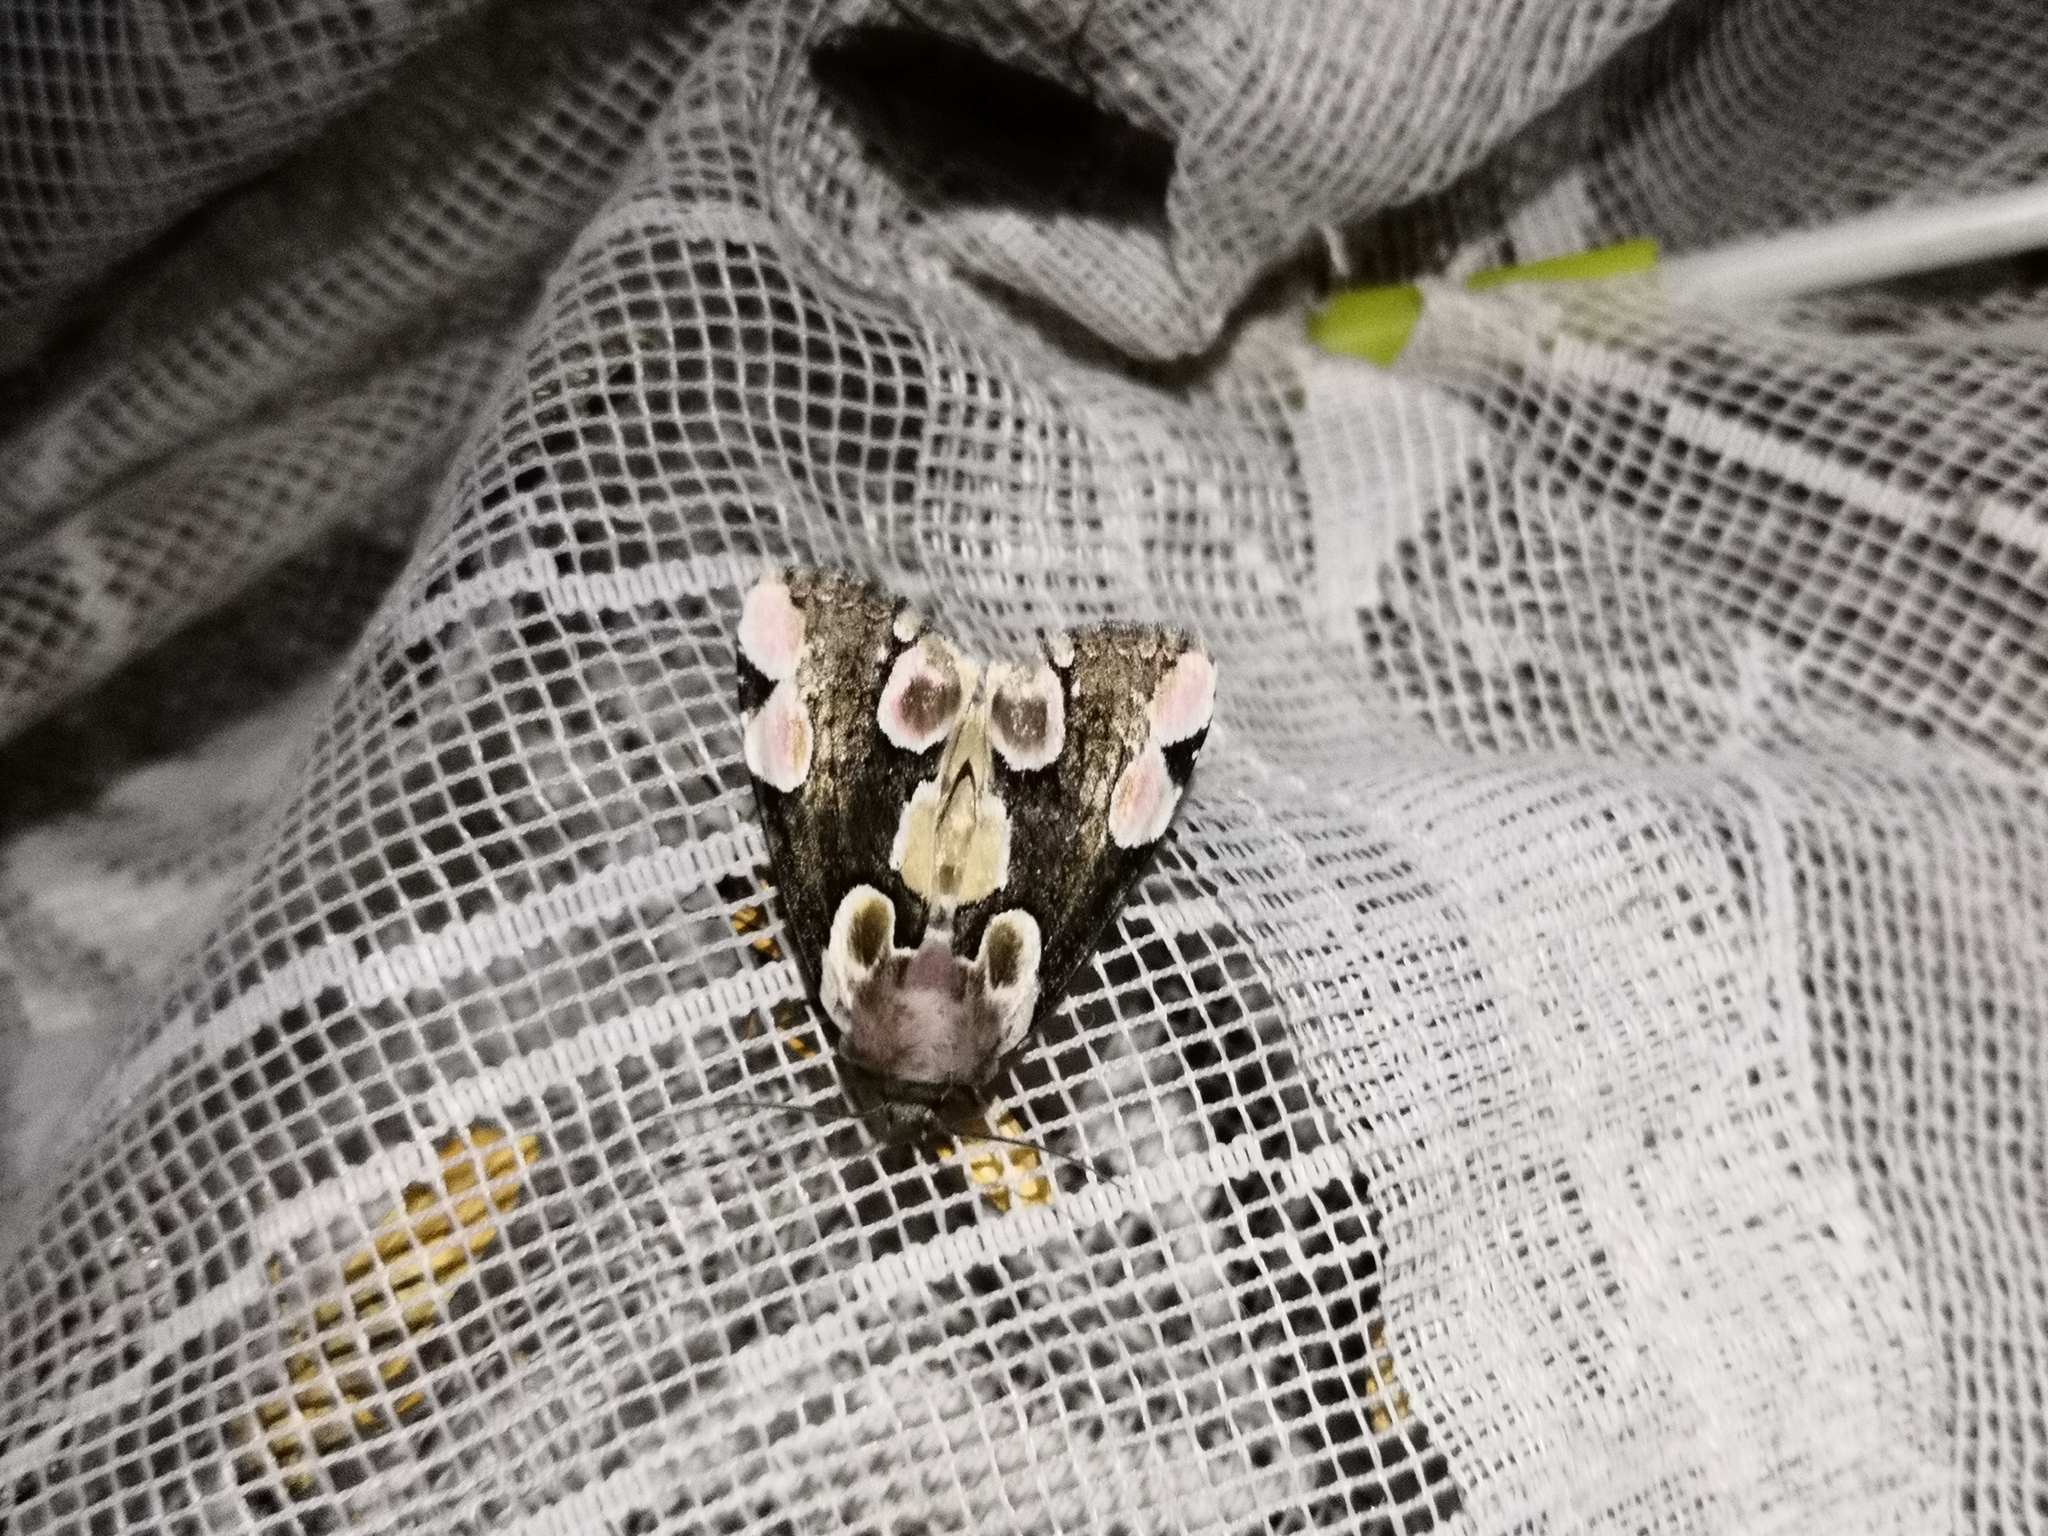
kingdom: Animalia
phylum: Arthropoda
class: Insecta
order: Lepidoptera
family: Drepanidae
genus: Thyatira
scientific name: Thyatira batis
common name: Peach blossom
